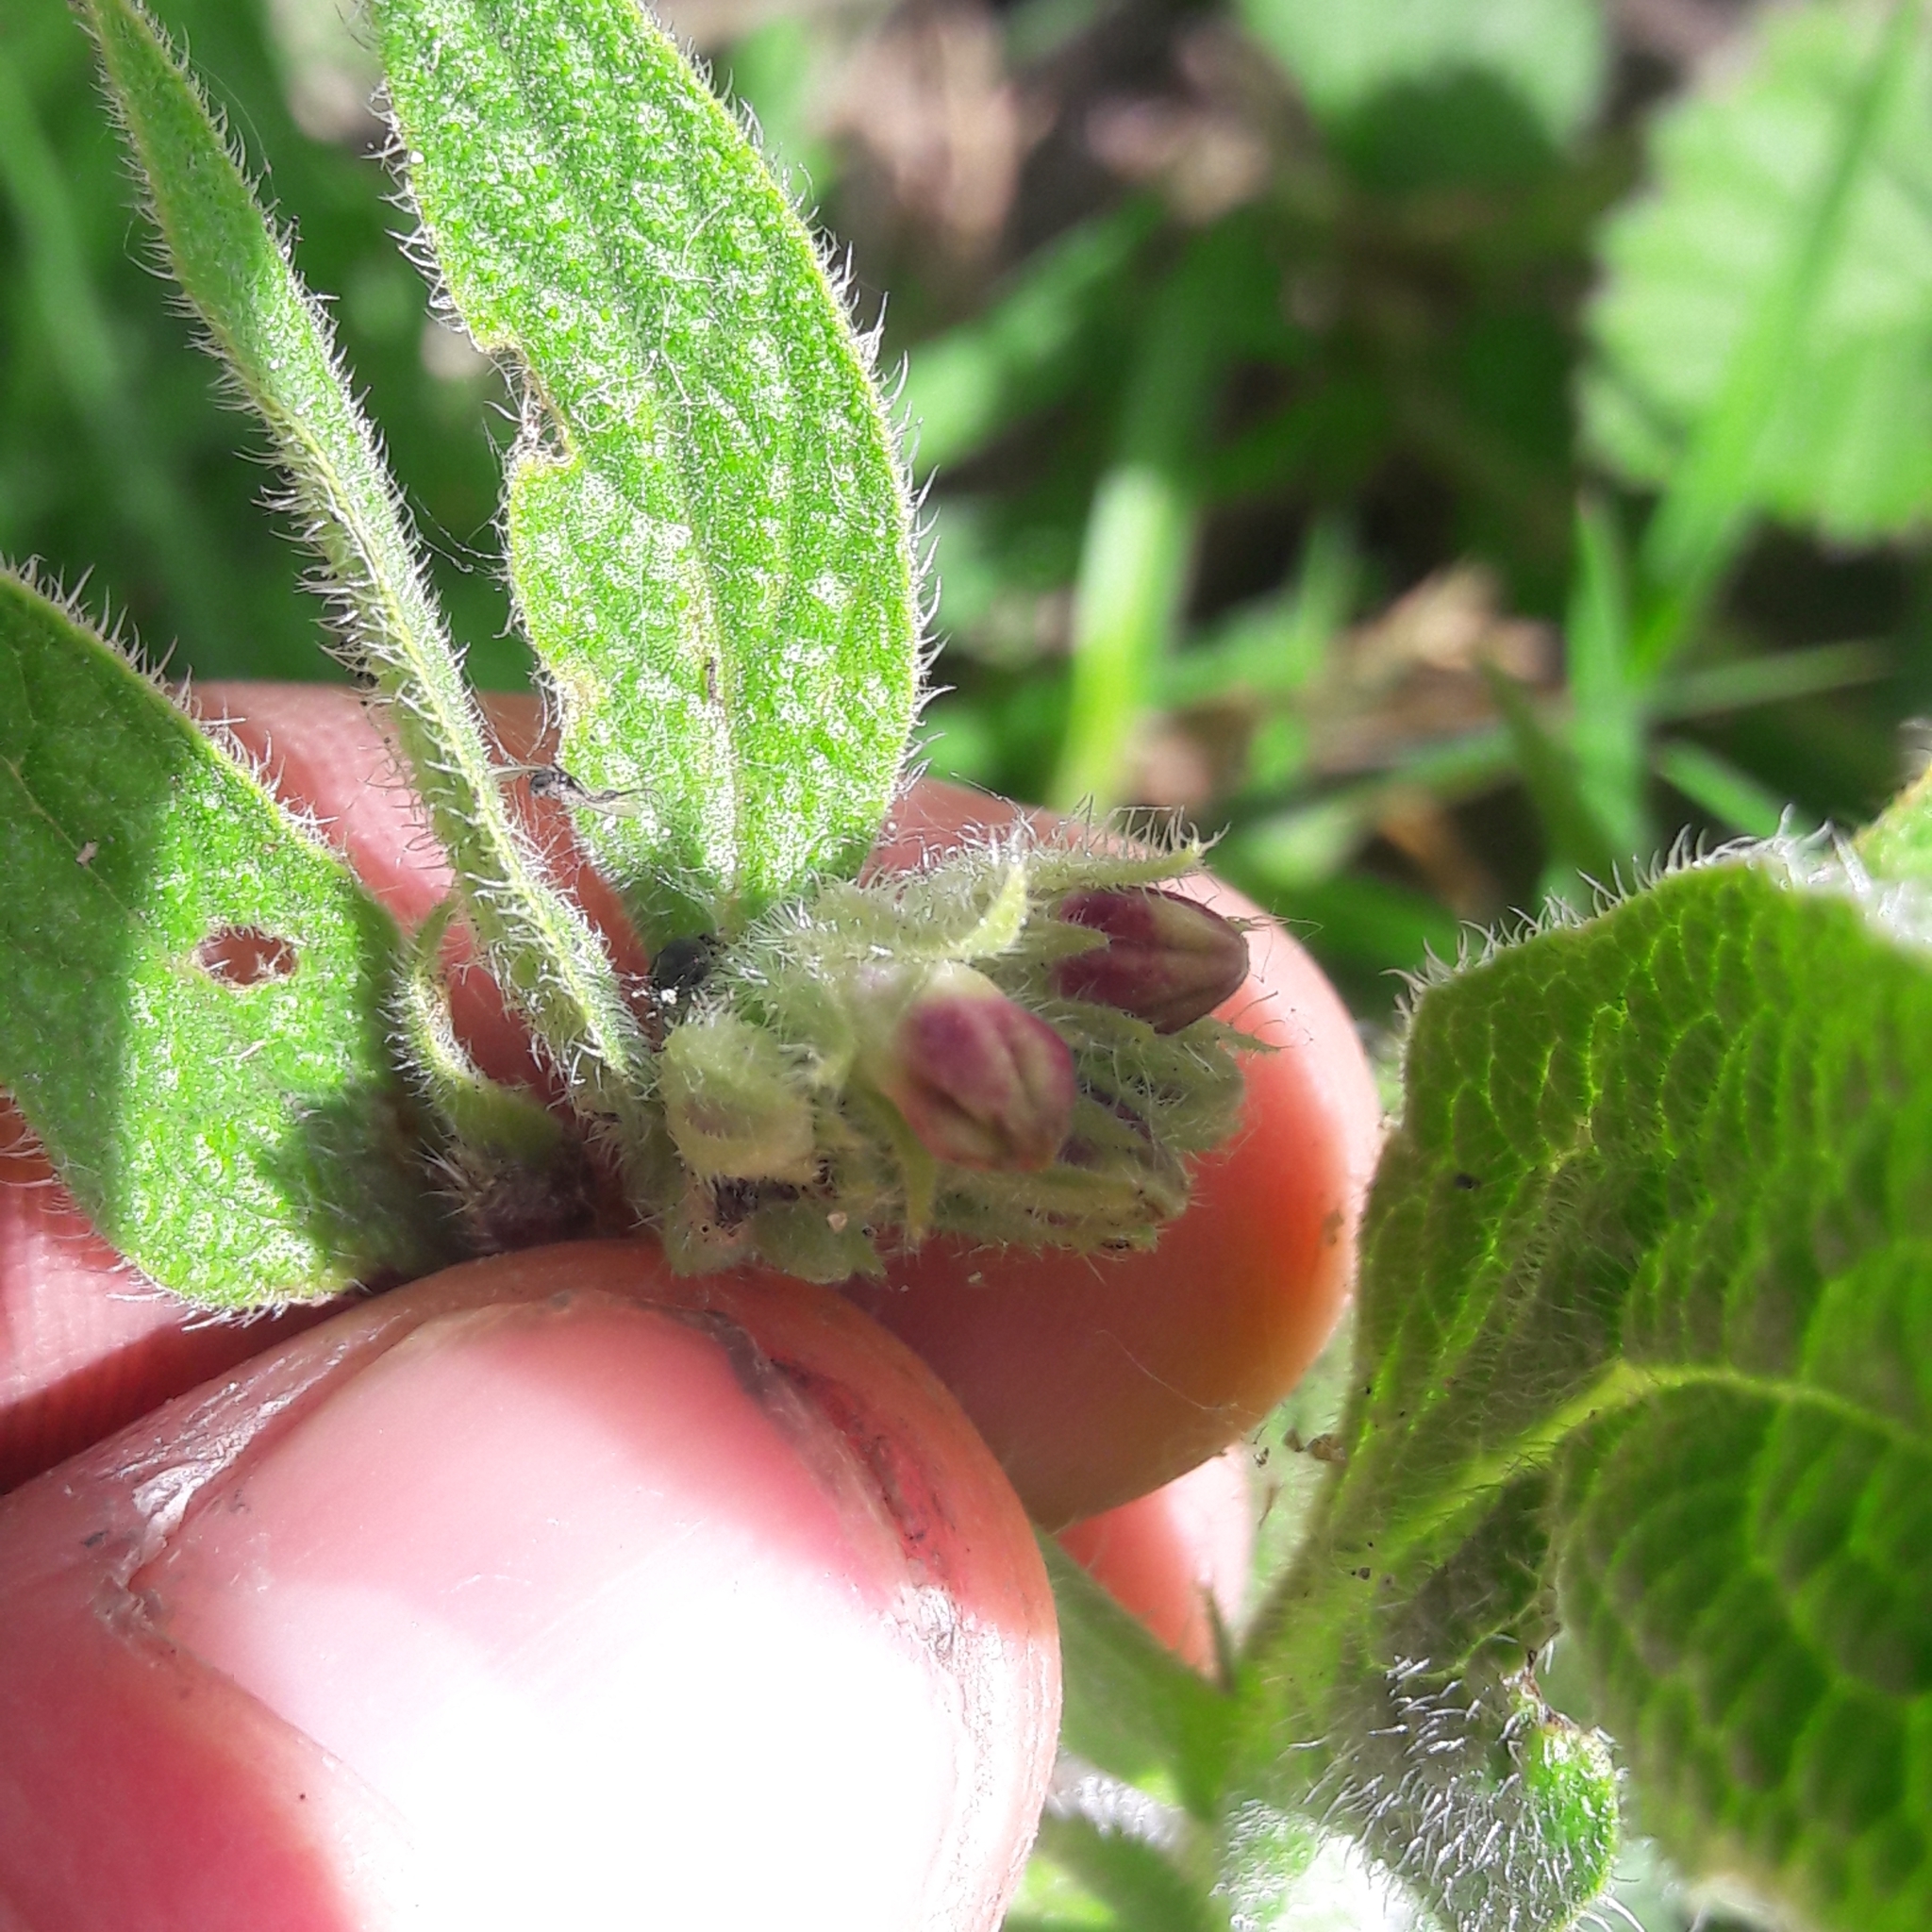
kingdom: Plantae
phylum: Tracheophyta
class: Magnoliopsida
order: Boraginales
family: Boraginaceae
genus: Symphytum
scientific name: Symphytum officinale
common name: Common comfrey
